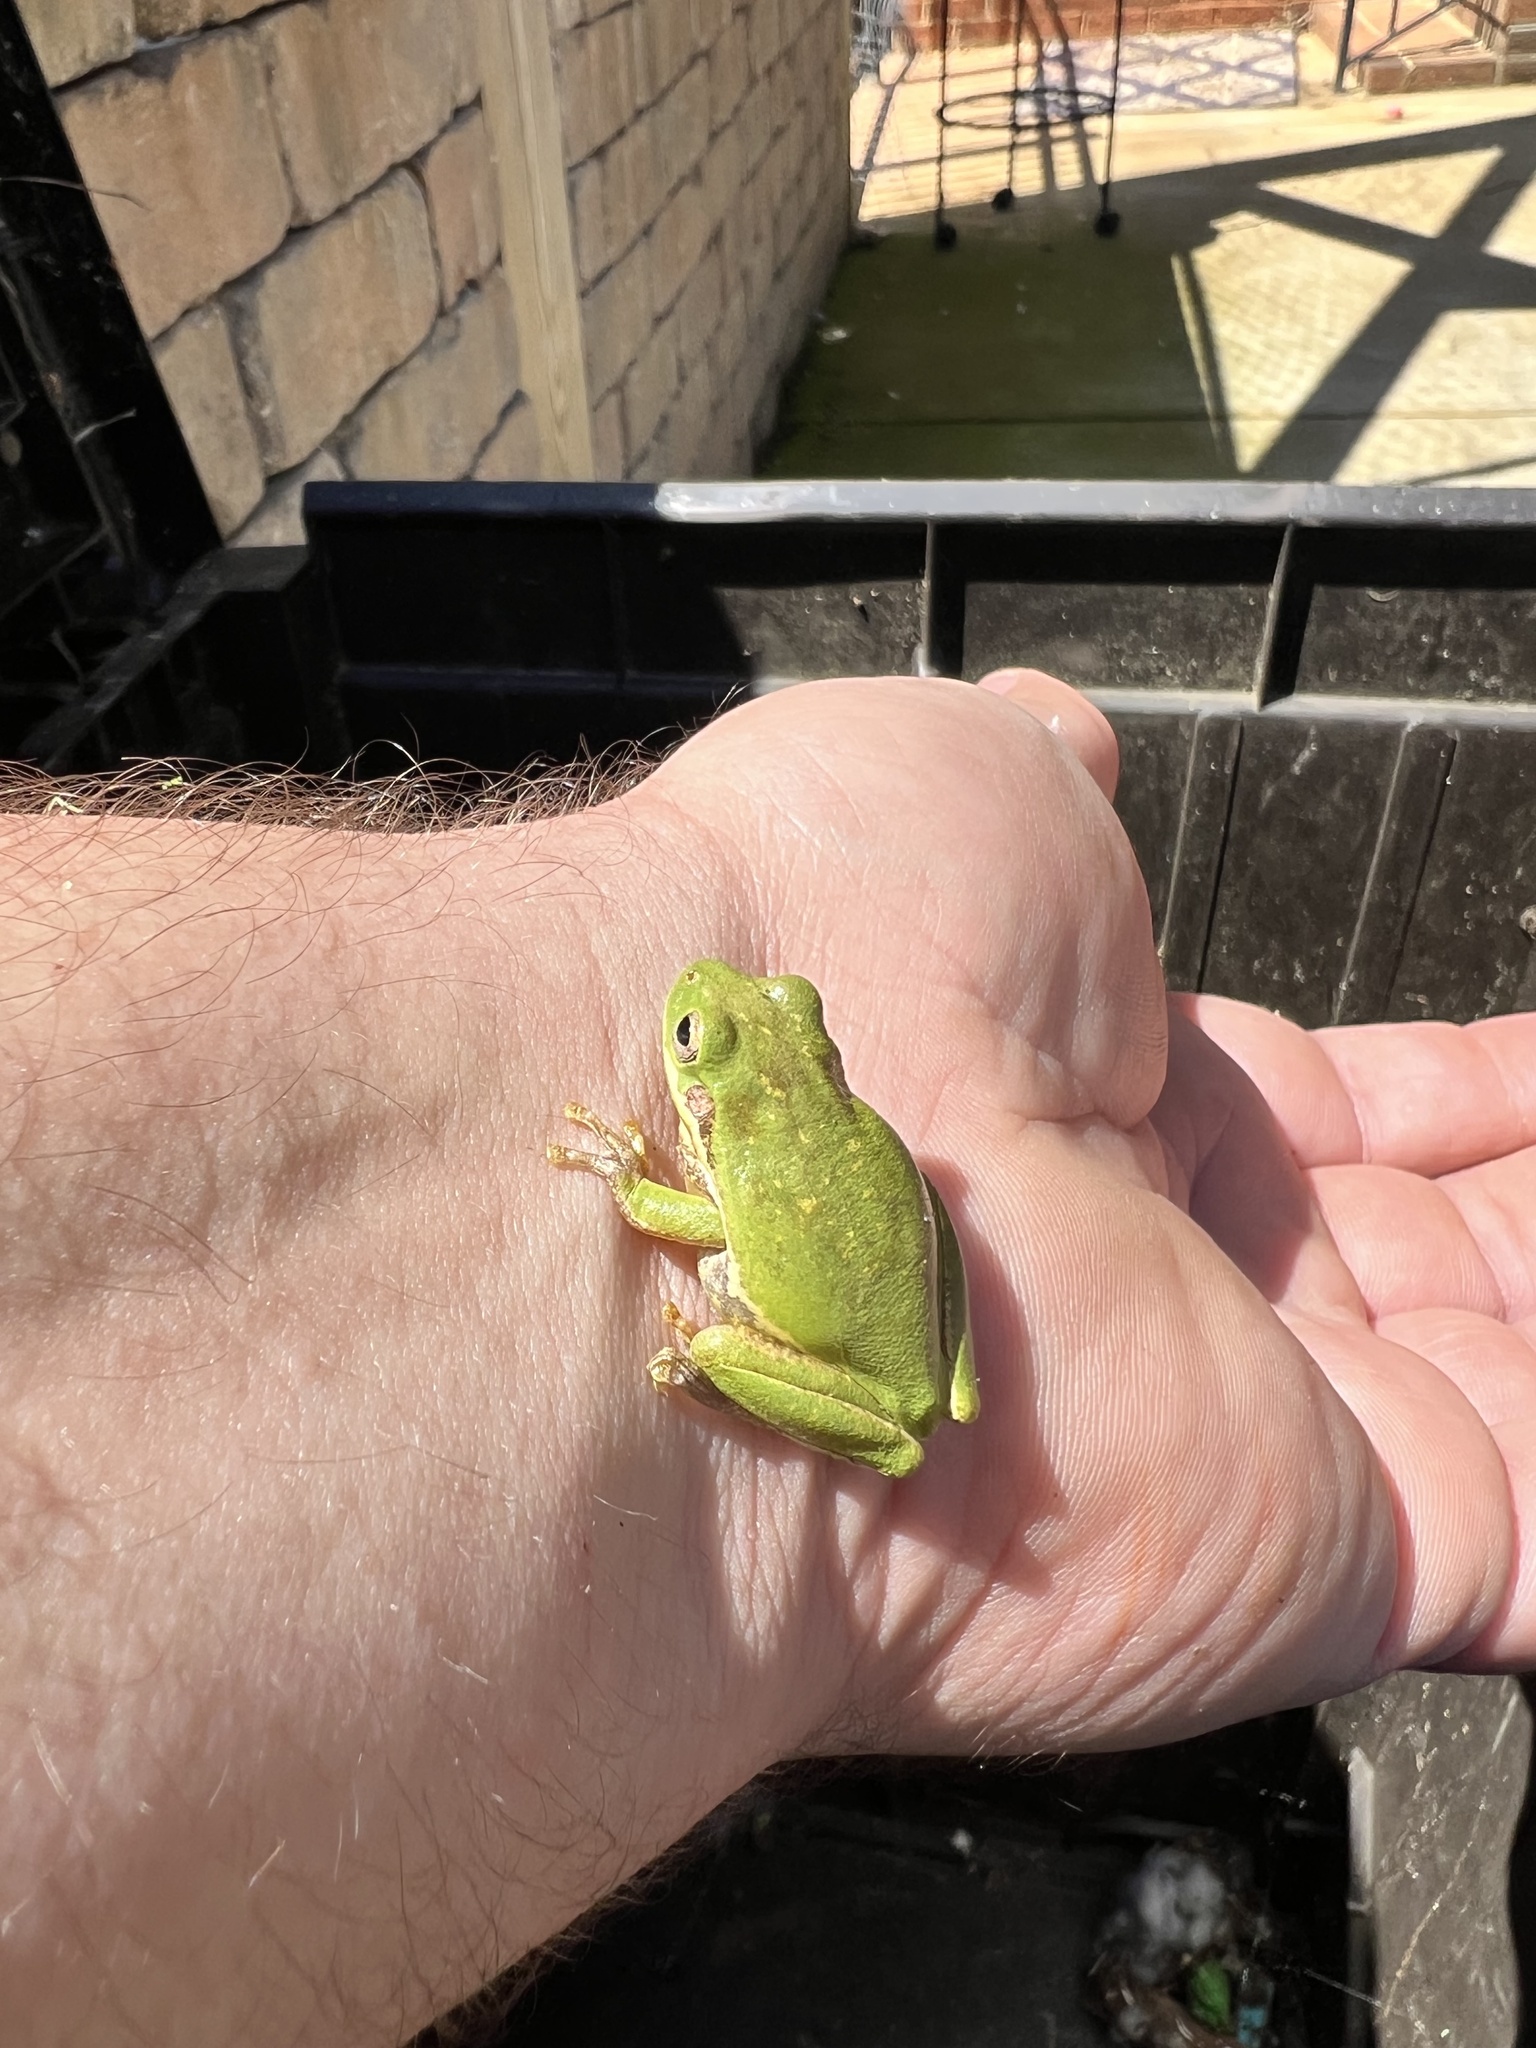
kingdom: Animalia
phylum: Chordata
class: Amphibia
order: Anura
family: Hylidae
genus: Dryophytes
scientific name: Dryophytes squirellus
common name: Squirrel treefrog
